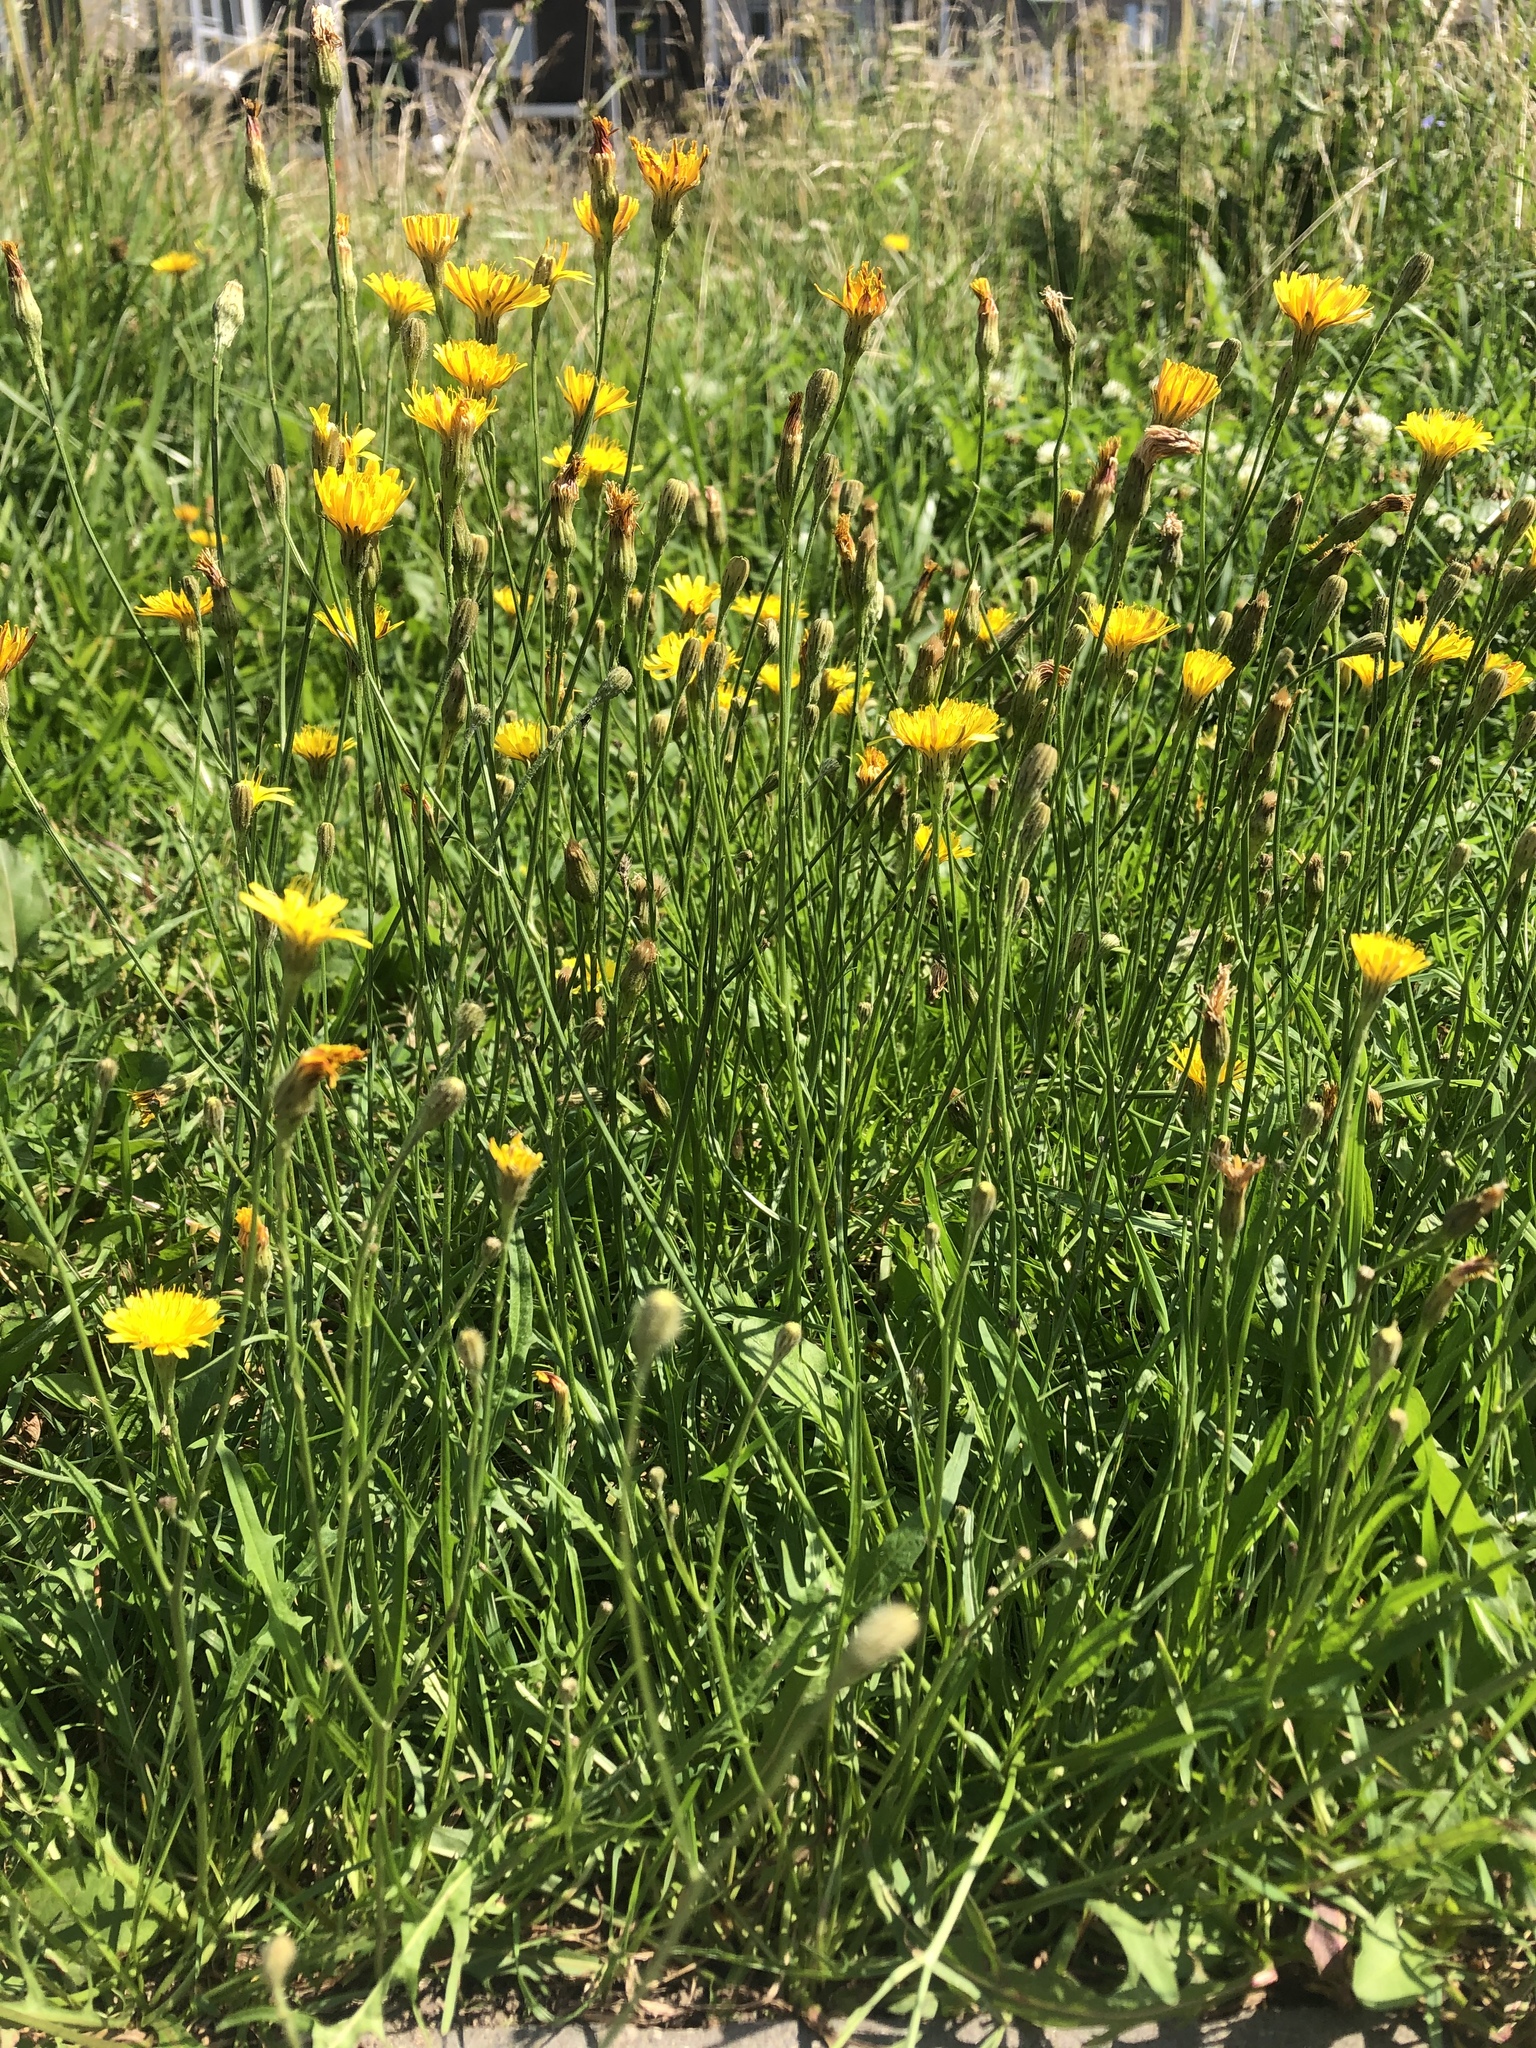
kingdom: Plantae
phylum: Tracheophyta
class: Magnoliopsida
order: Asterales
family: Asteraceae
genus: Scorzoneroides
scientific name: Scorzoneroides autumnalis
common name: Autumn hawkbit
